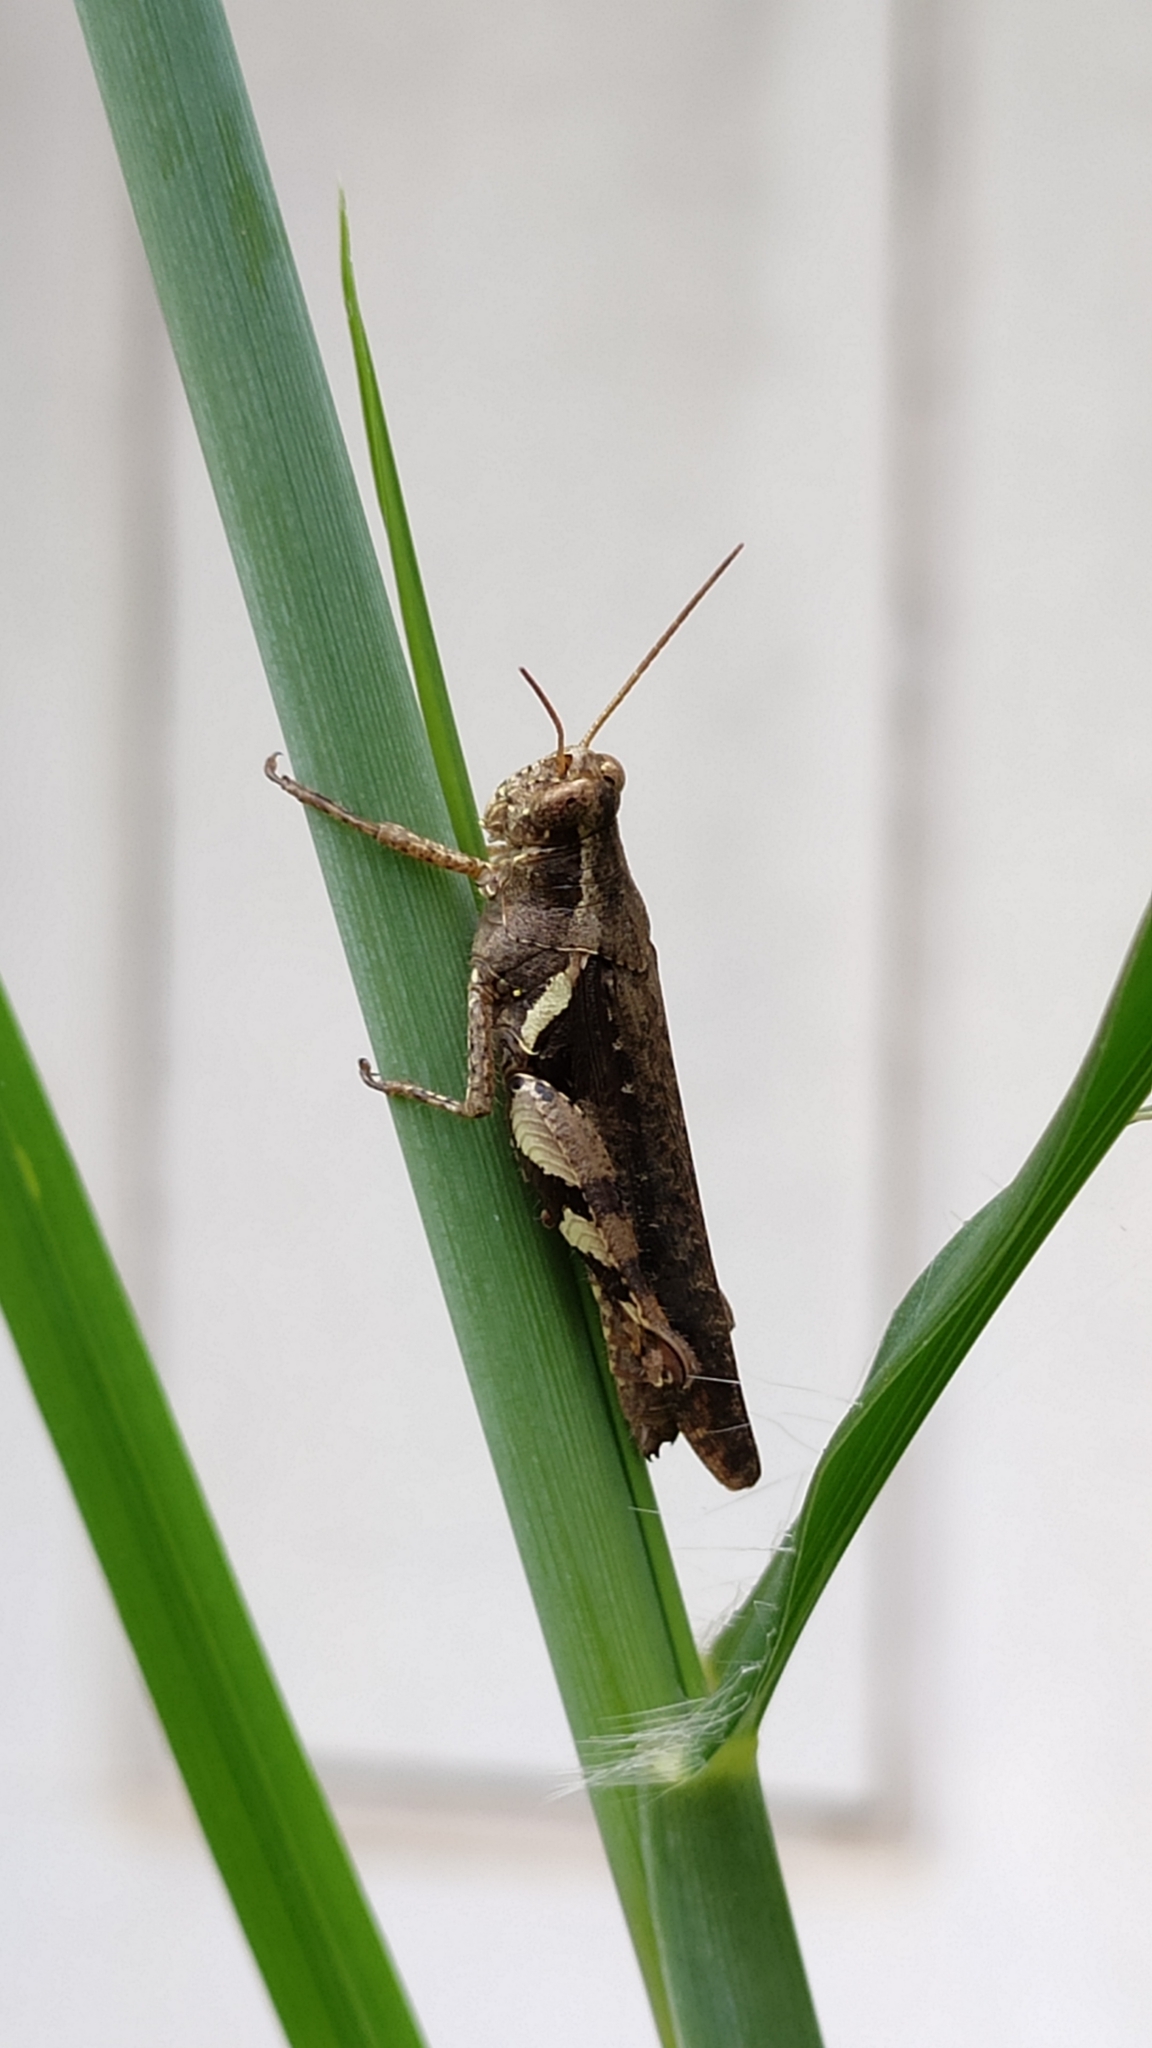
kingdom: Animalia
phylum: Arthropoda
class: Insecta
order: Orthoptera
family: Acrididae
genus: Xenocatantops
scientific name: Xenocatantops humile
